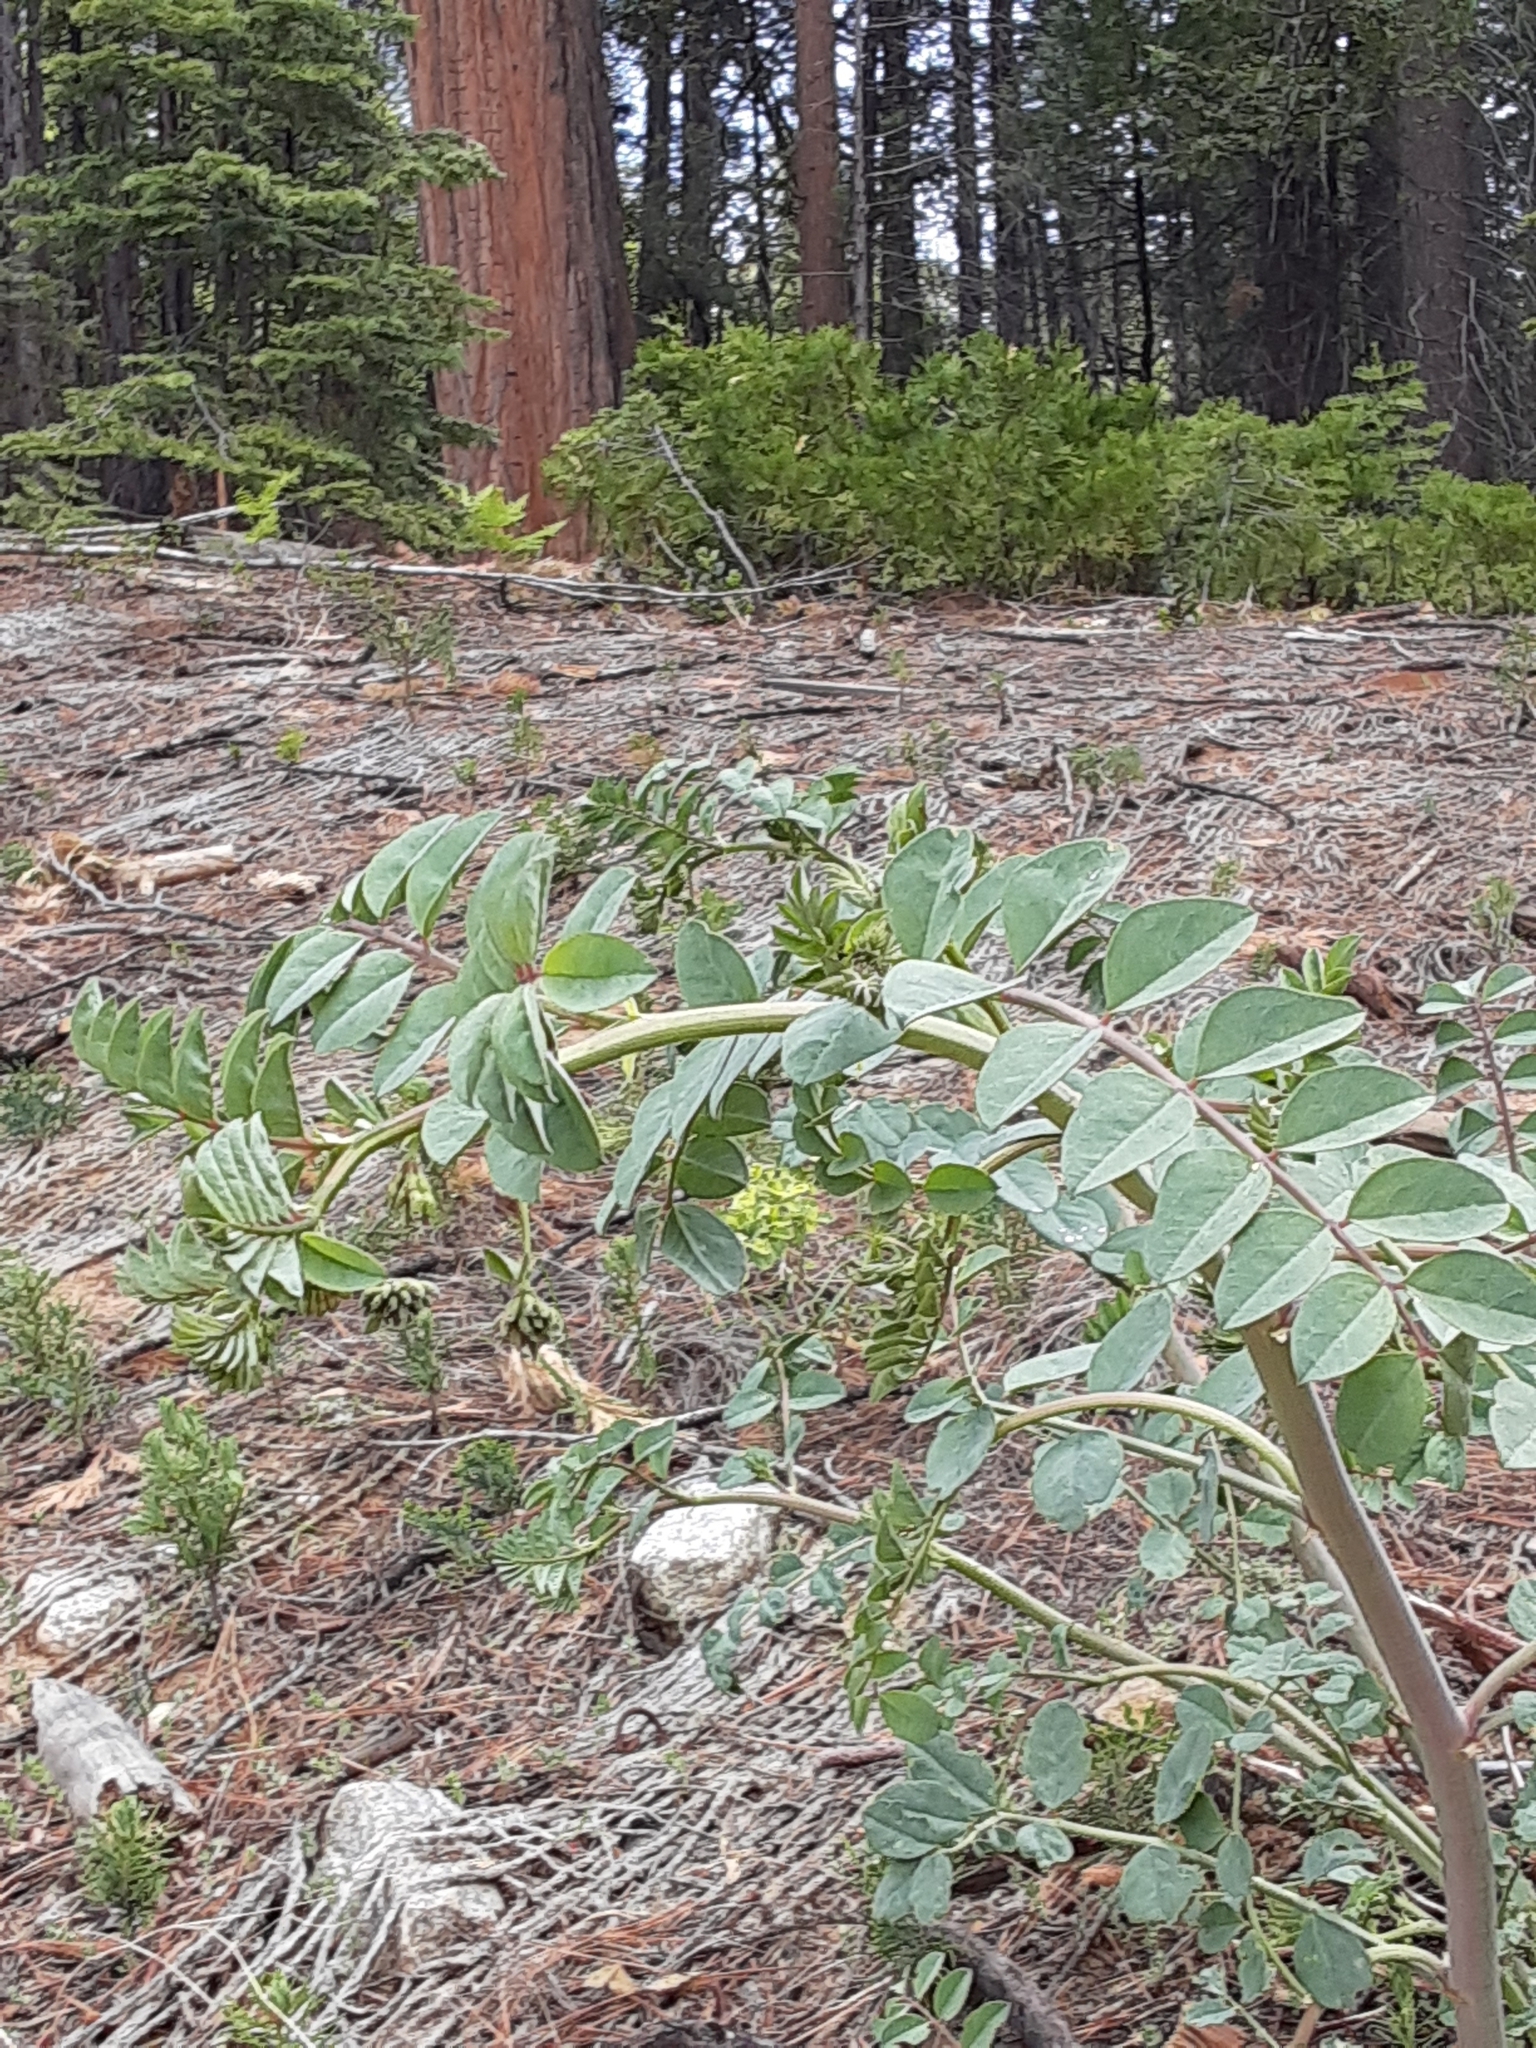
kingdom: Plantae
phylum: Tracheophyta
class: Magnoliopsida
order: Fabales
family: Fabaceae
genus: Hosackia
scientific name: Hosackia crassifolia
